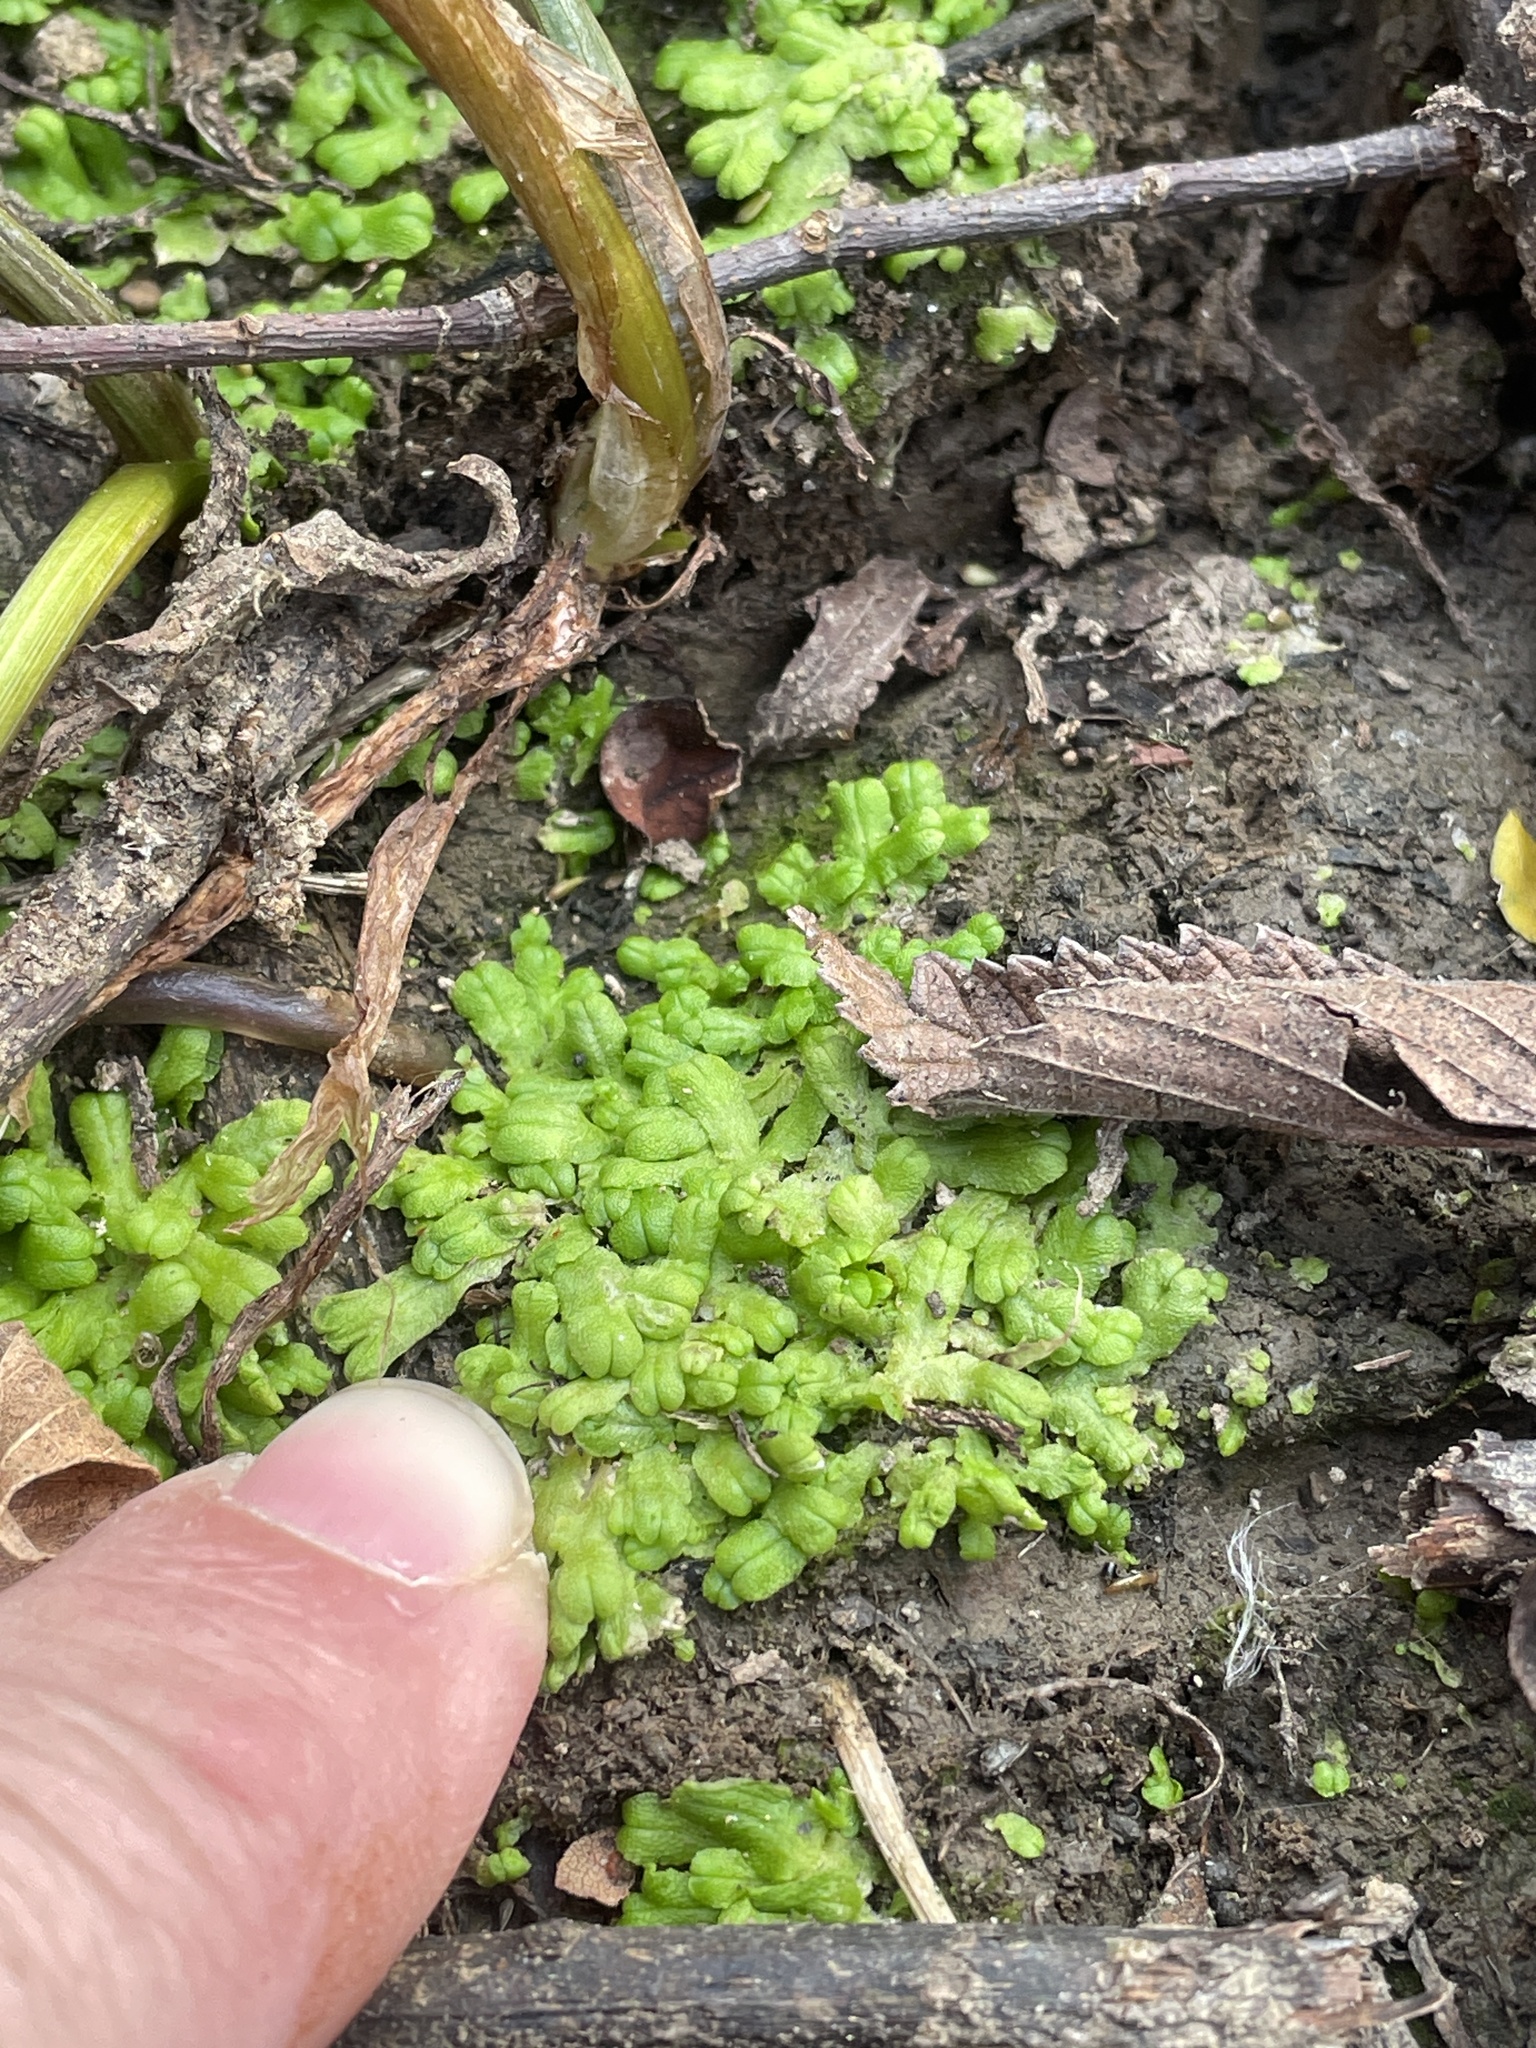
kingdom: Plantae
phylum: Marchantiophyta
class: Marchantiopsida
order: Marchantiales
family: Ricciaceae
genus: Ricciocarpos
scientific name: Ricciocarpos natans
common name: Purple-fringed liverwort
